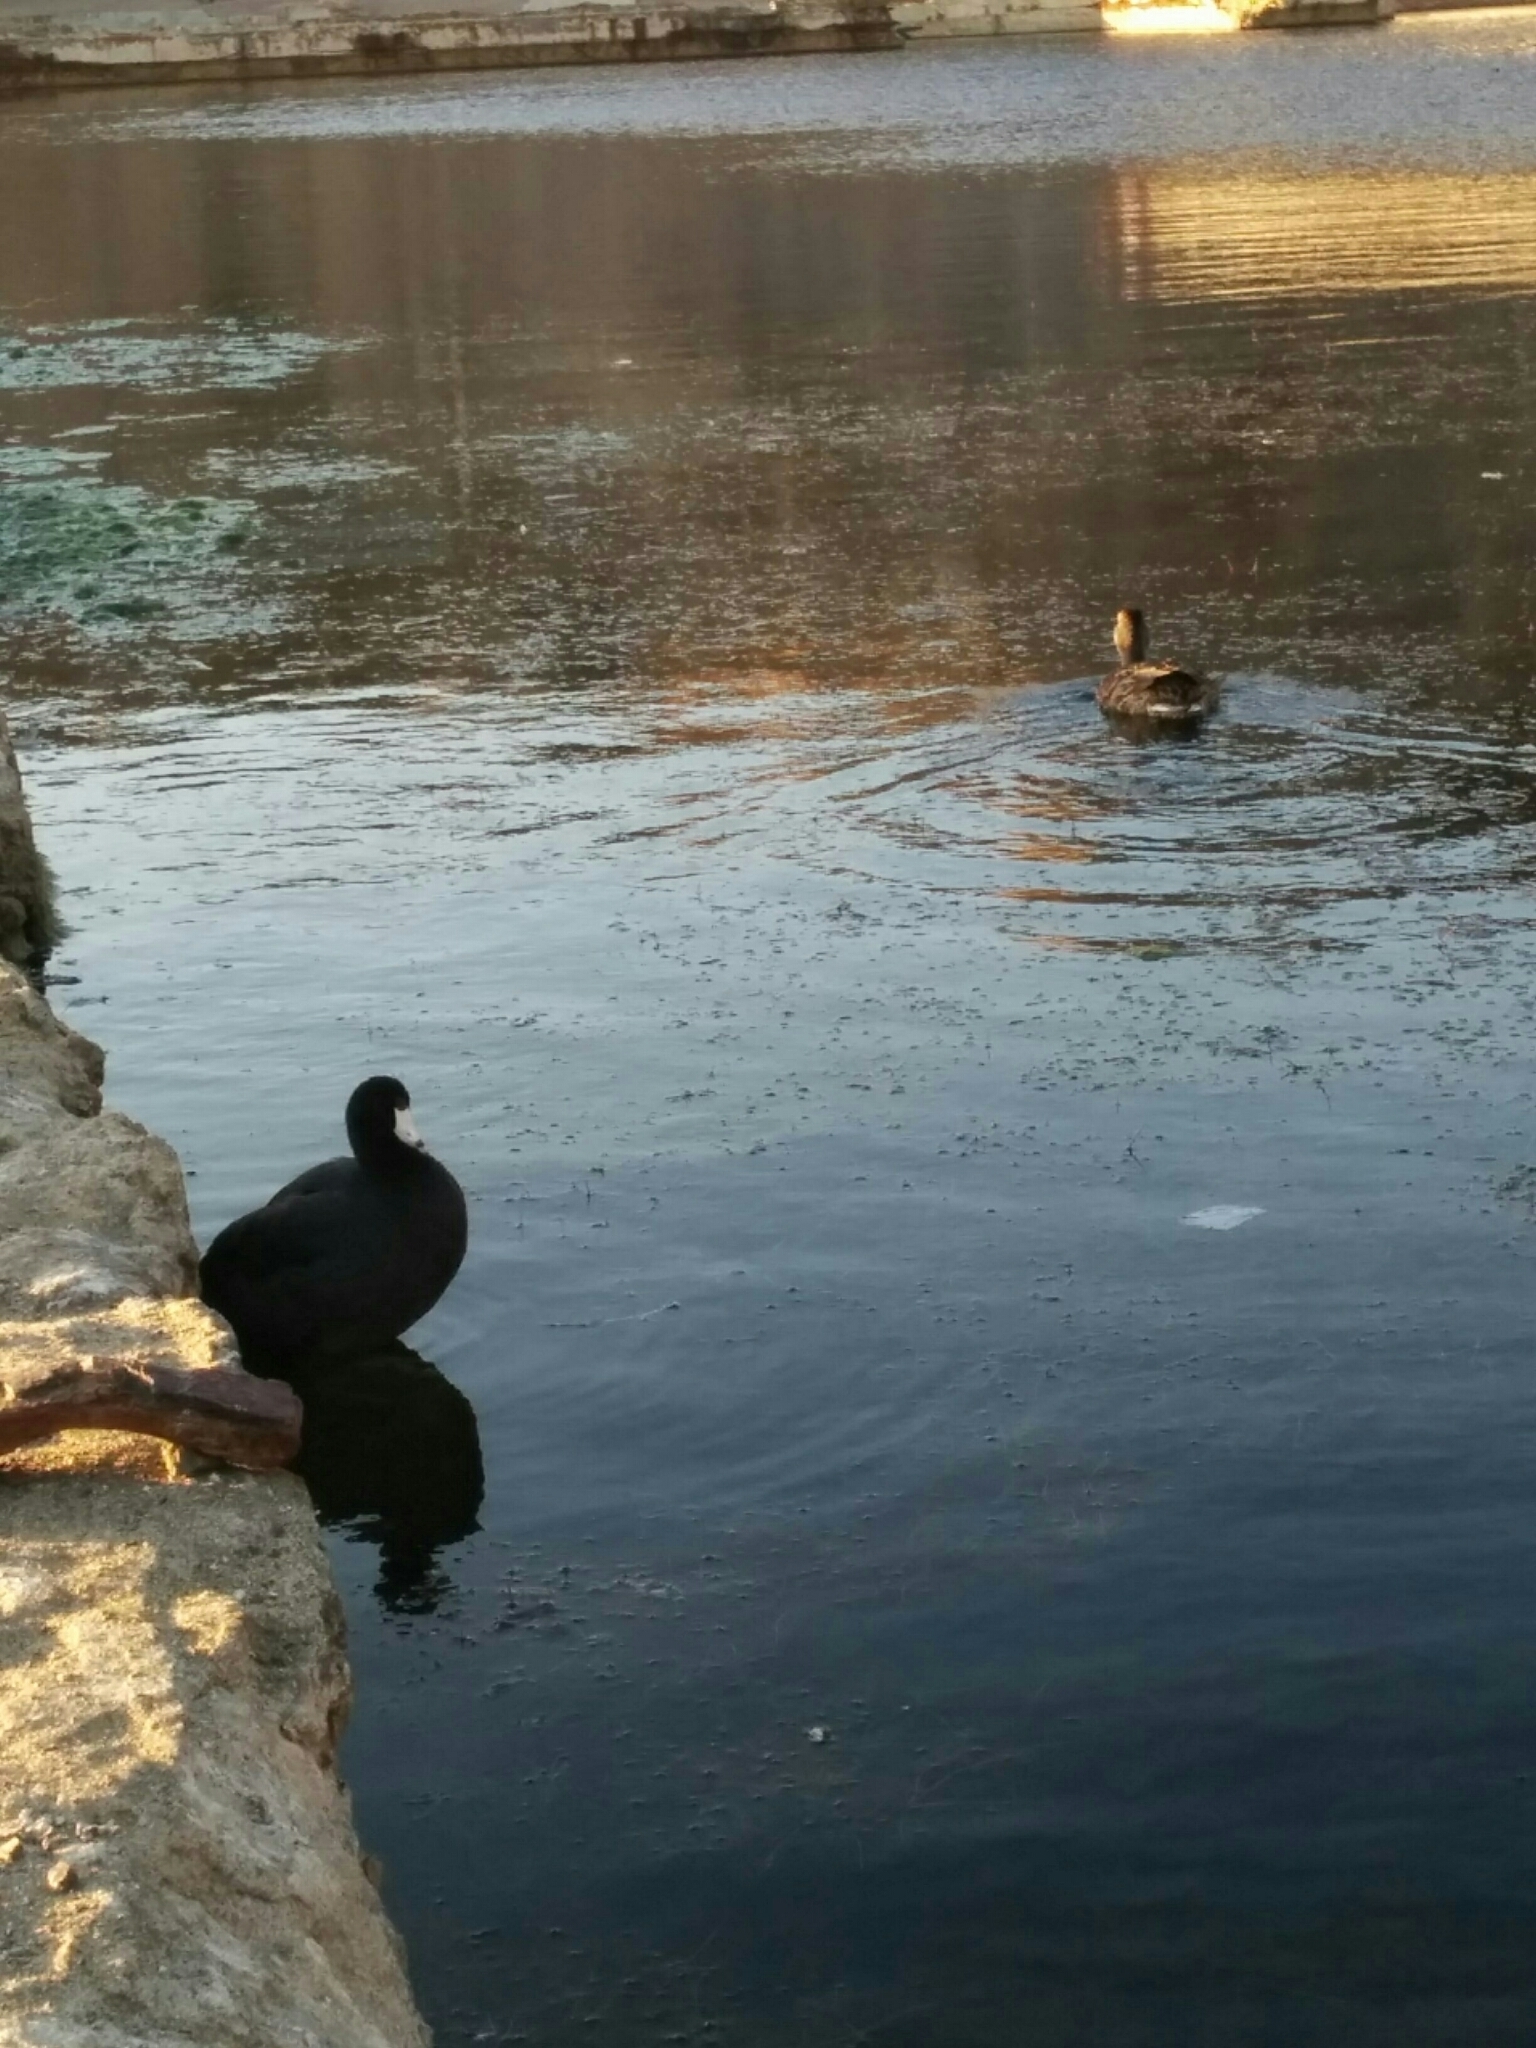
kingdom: Animalia
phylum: Chordata
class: Aves
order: Gruiformes
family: Rallidae
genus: Fulica
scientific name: Fulica americana
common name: American coot
